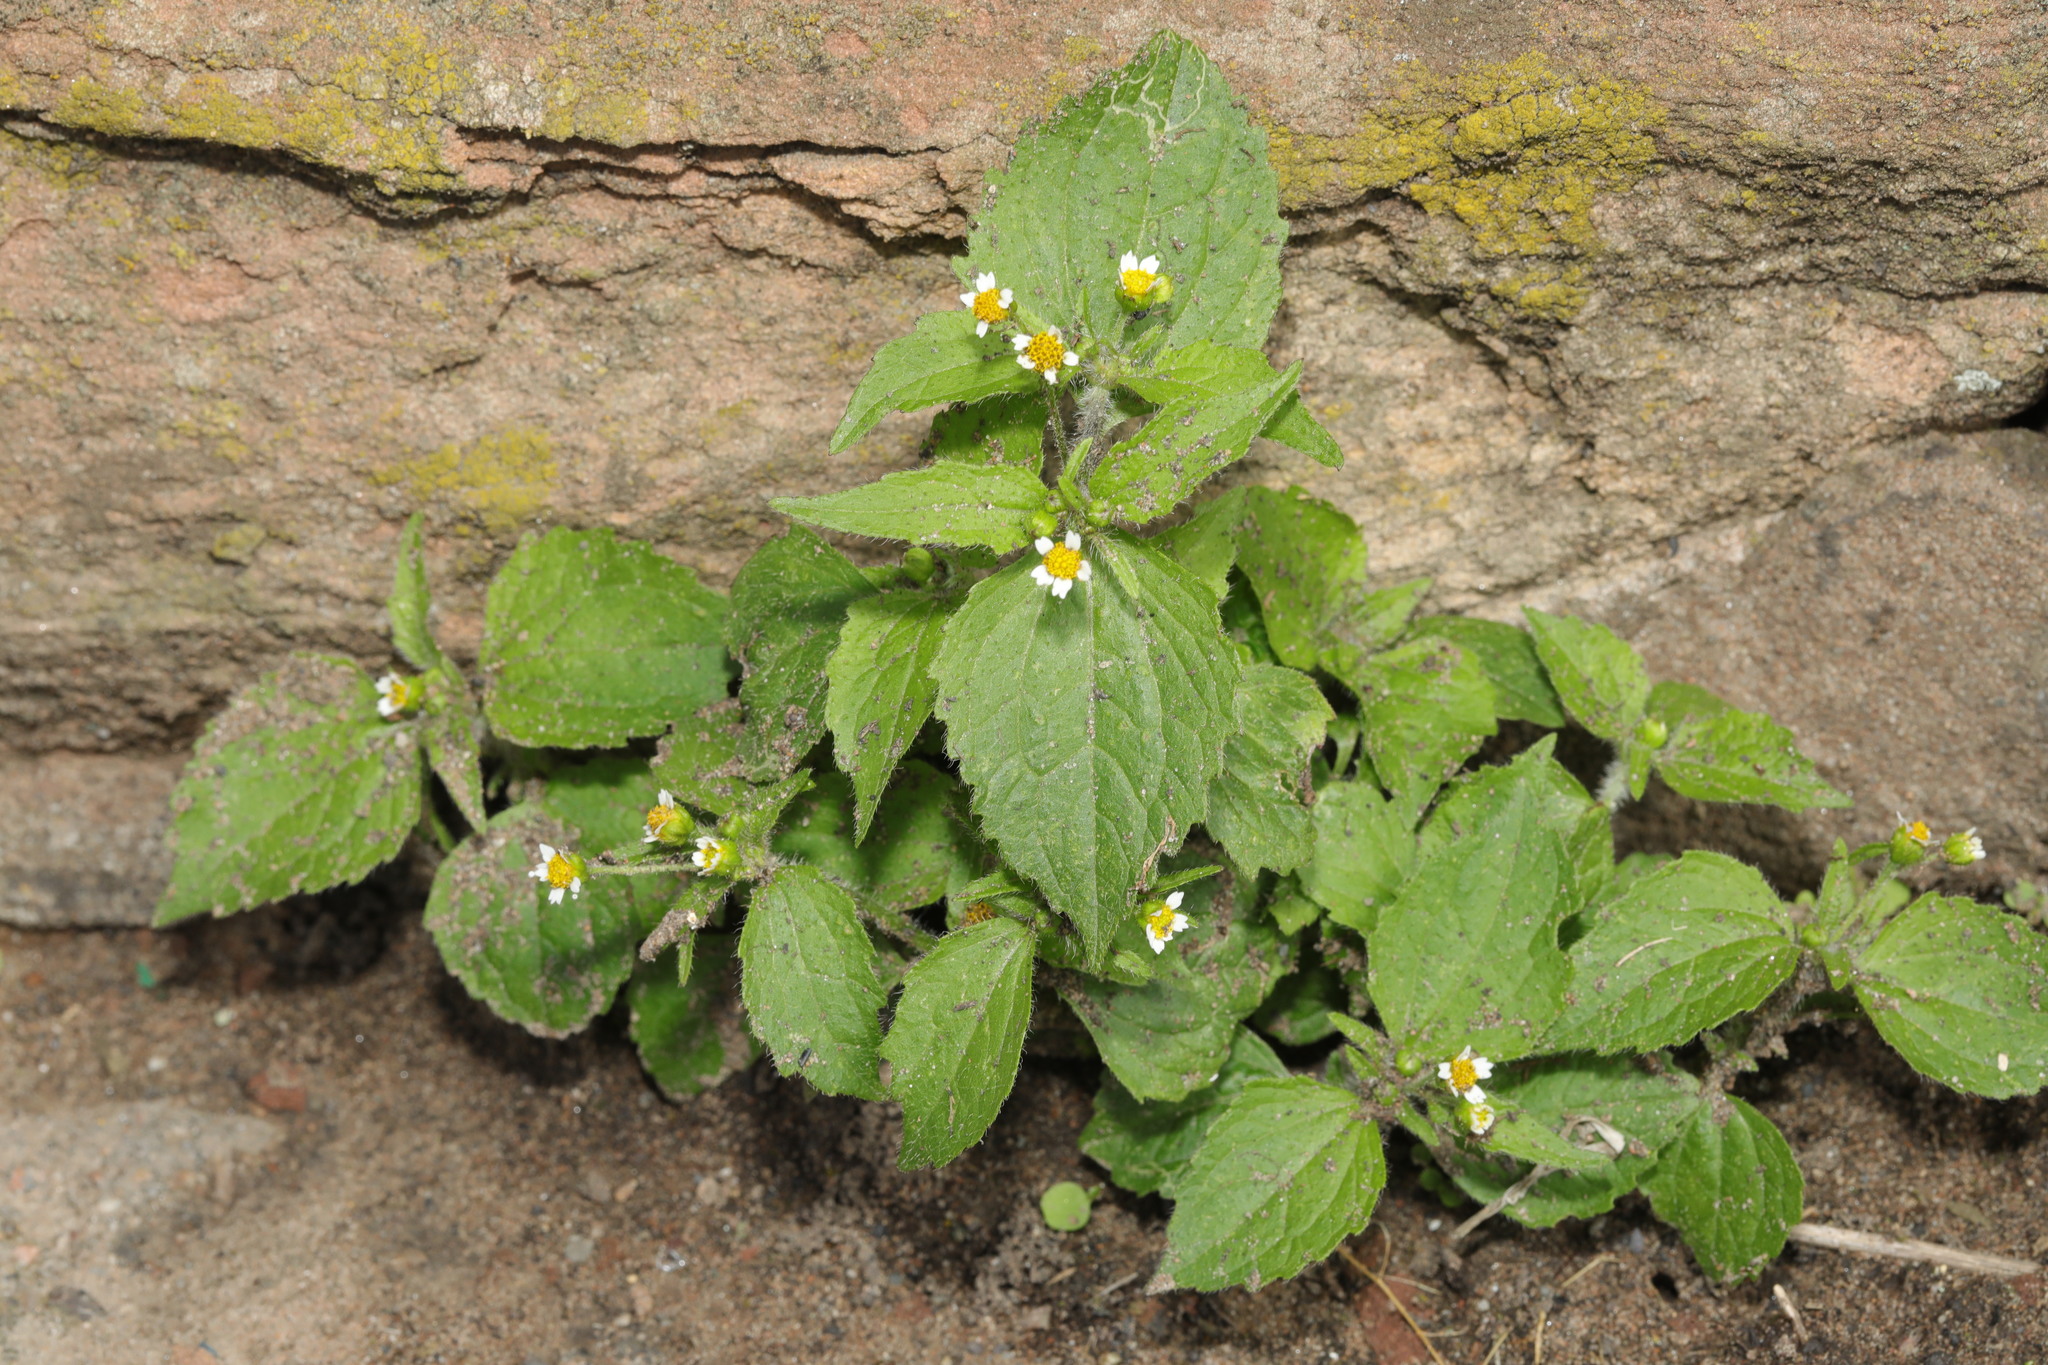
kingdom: Plantae
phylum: Tracheophyta
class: Magnoliopsida
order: Asterales
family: Asteraceae
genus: Galinsoga
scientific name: Galinsoga quadriradiata
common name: Shaggy soldier
